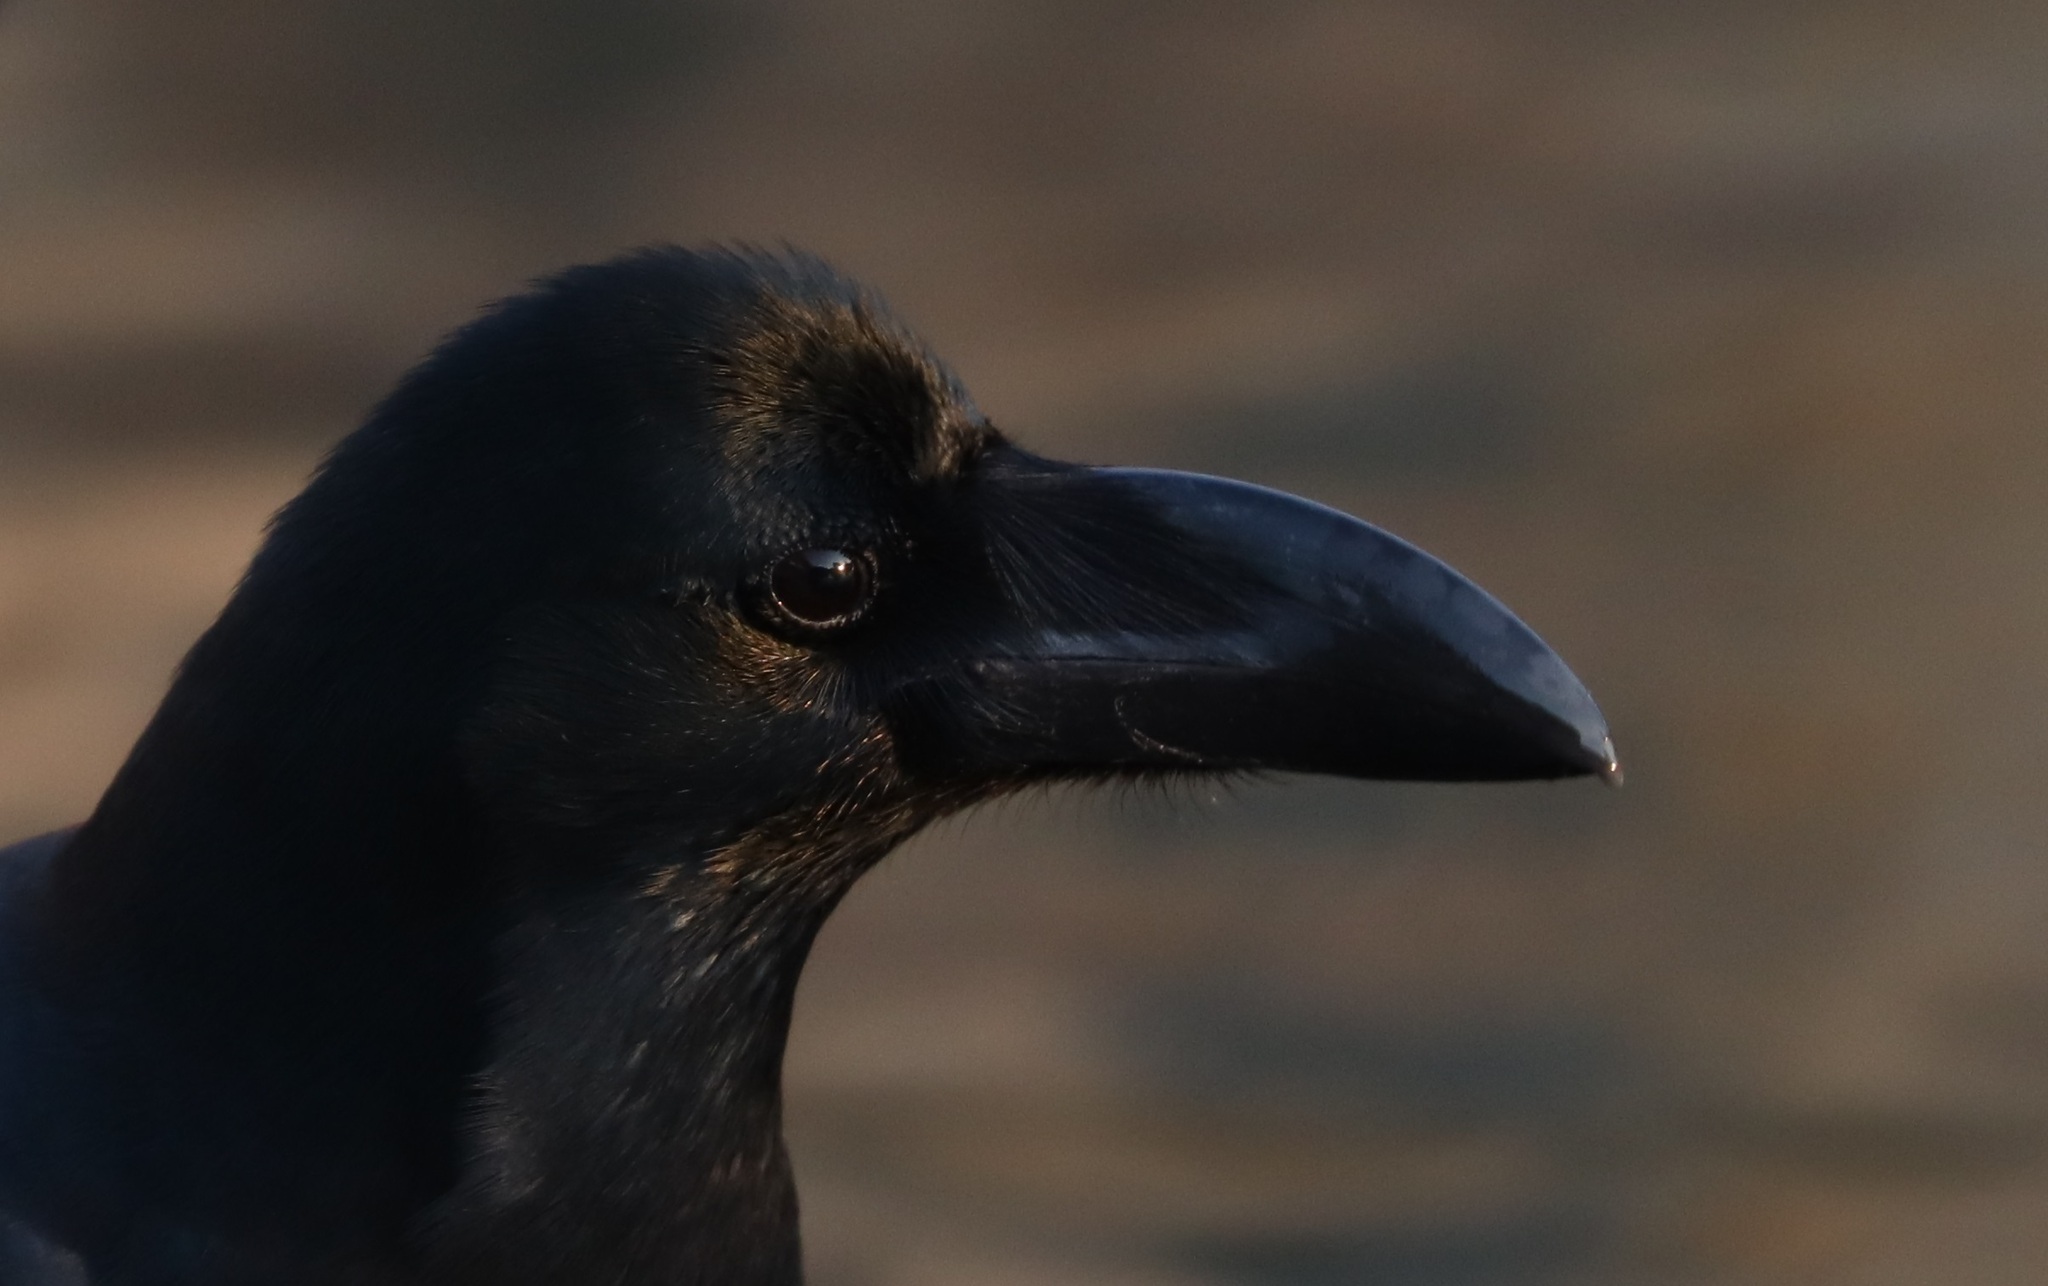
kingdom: Animalia
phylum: Chordata
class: Aves
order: Passeriformes
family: Corvidae
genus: Corvus
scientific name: Corvus macrorhynchos
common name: Large-billed crow
